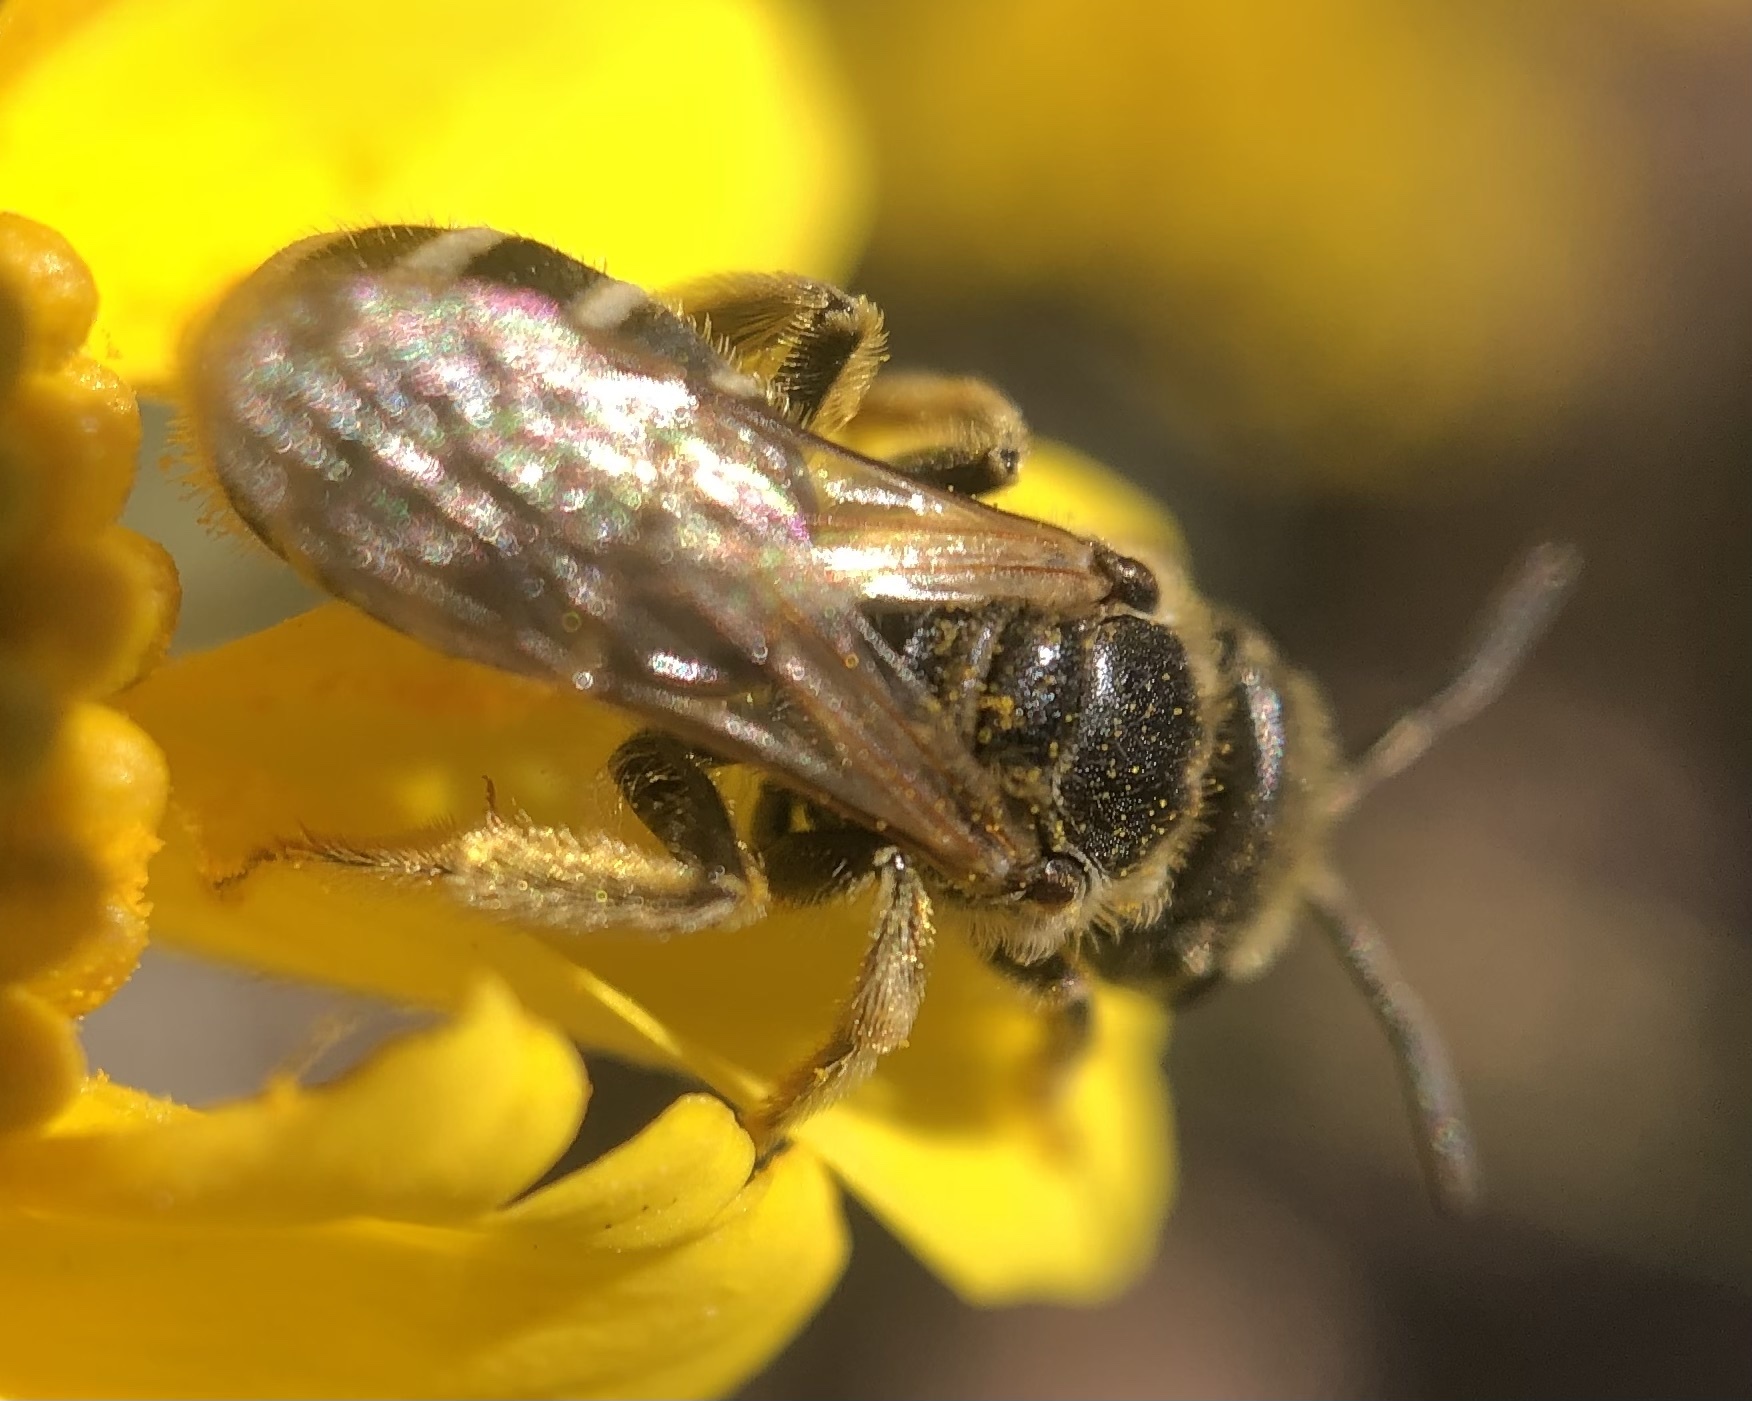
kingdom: Animalia
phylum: Arthropoda
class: Insecta
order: Hymenoptera
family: Halictidae
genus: Halictus
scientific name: Halictus ligatus
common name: Ligated furrow bee
